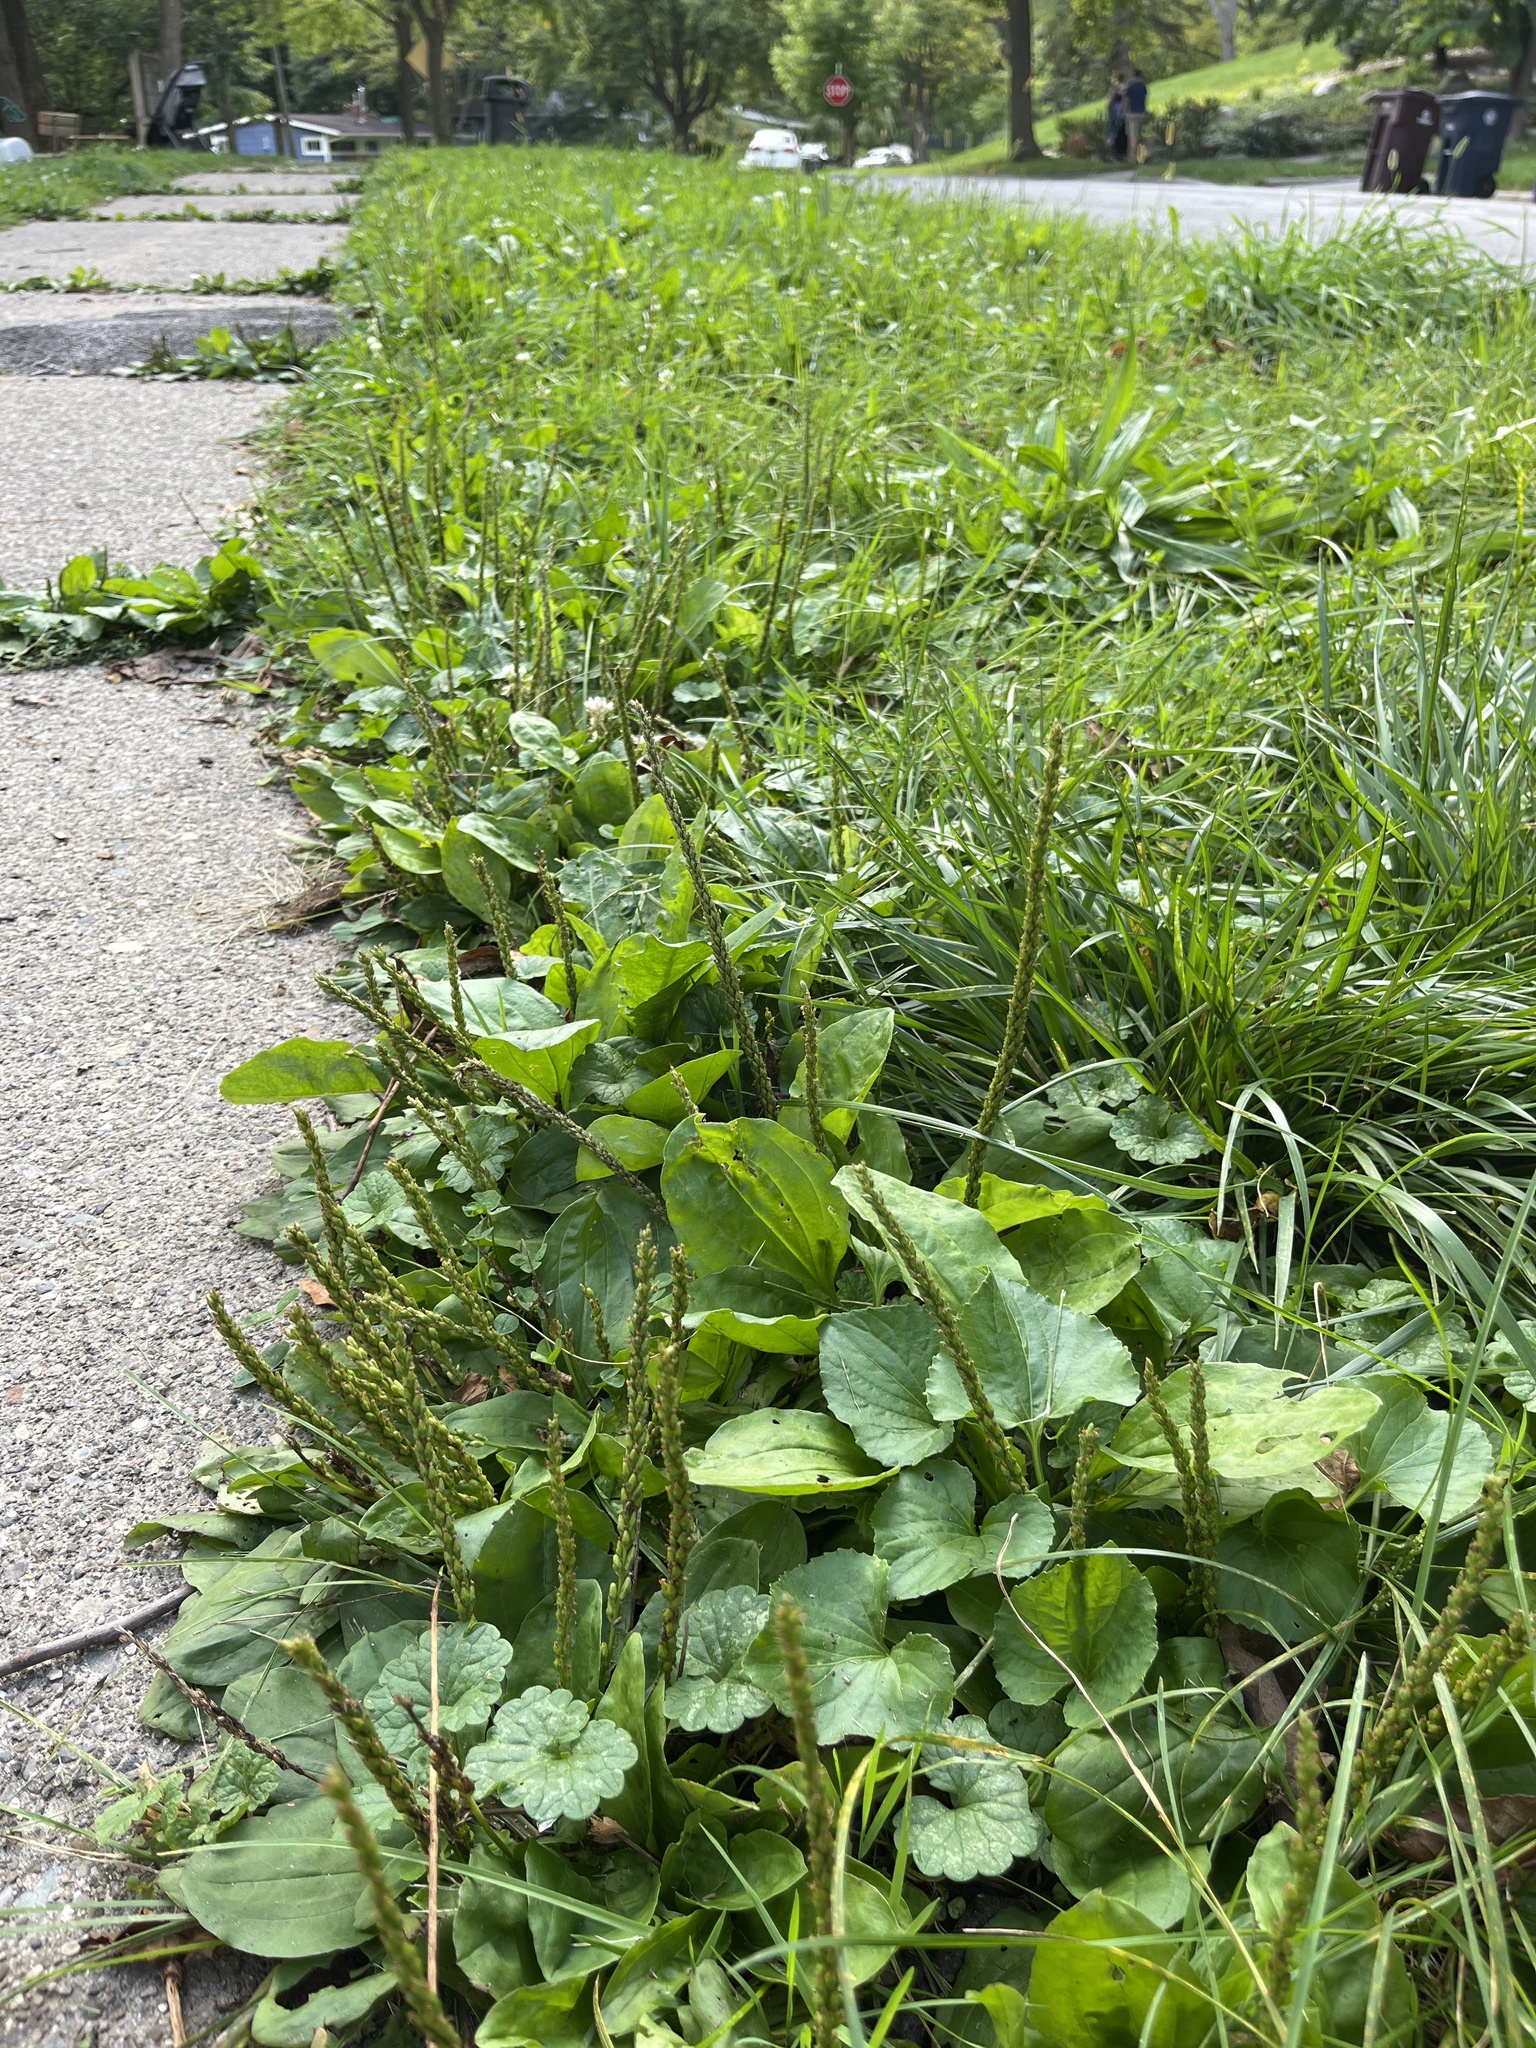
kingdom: Plantae
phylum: Tracheophyta
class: Magnoliopsida
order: Lamiales
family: Plantaginaceae
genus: Plantago
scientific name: Plantago major
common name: Common plantain
